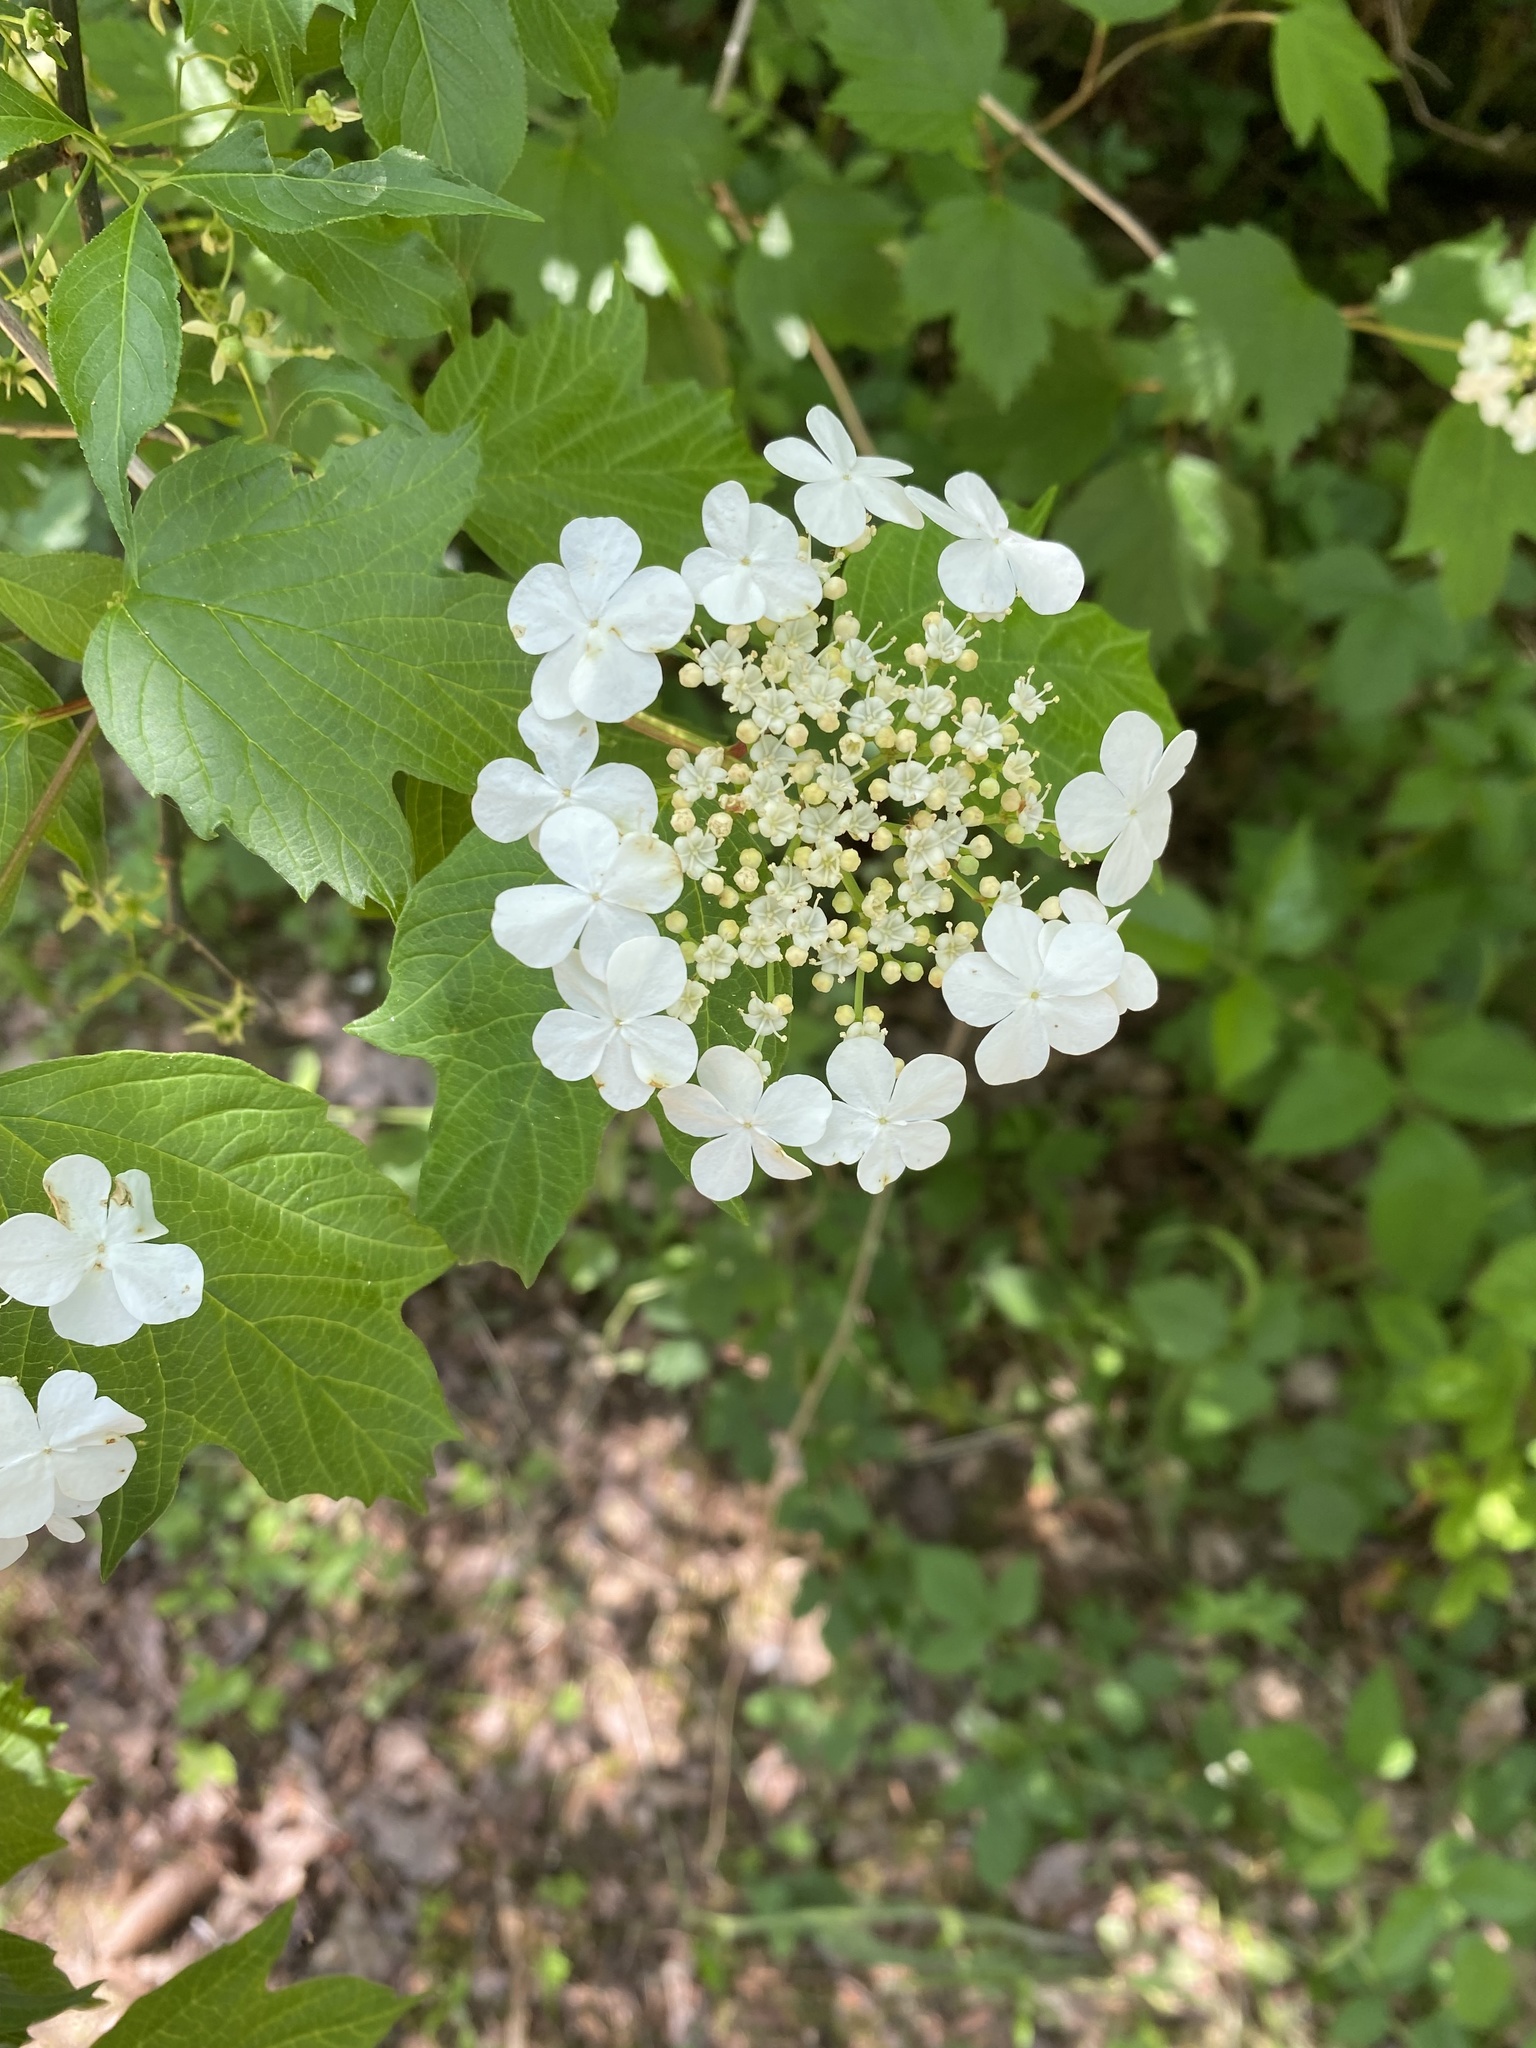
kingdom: Plantae
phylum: Tracheophyta
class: Magnoliopsida
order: Dipsacales
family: Viburnaceae
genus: Viburnum
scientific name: Viburnum opulus
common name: Guelder-rose
